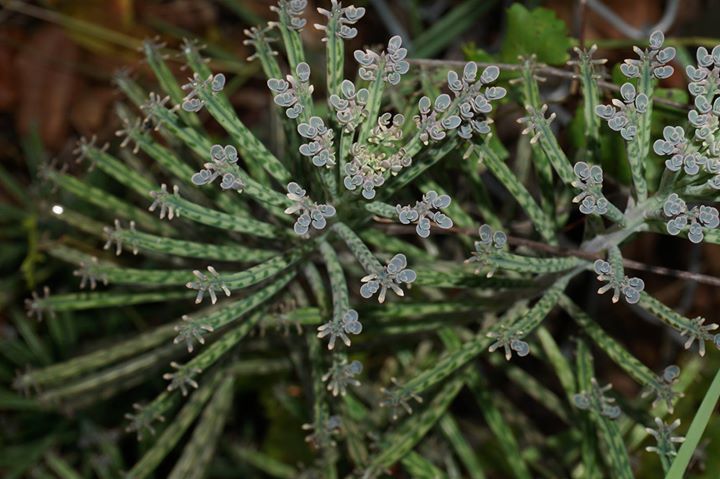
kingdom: Plantae
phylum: Tracheophyta
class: Magnoliopsida
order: Saxifragales
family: Crassulaceae
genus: Kalanchoe
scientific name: Kalanchoe delagoensis
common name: Chandelier plant
